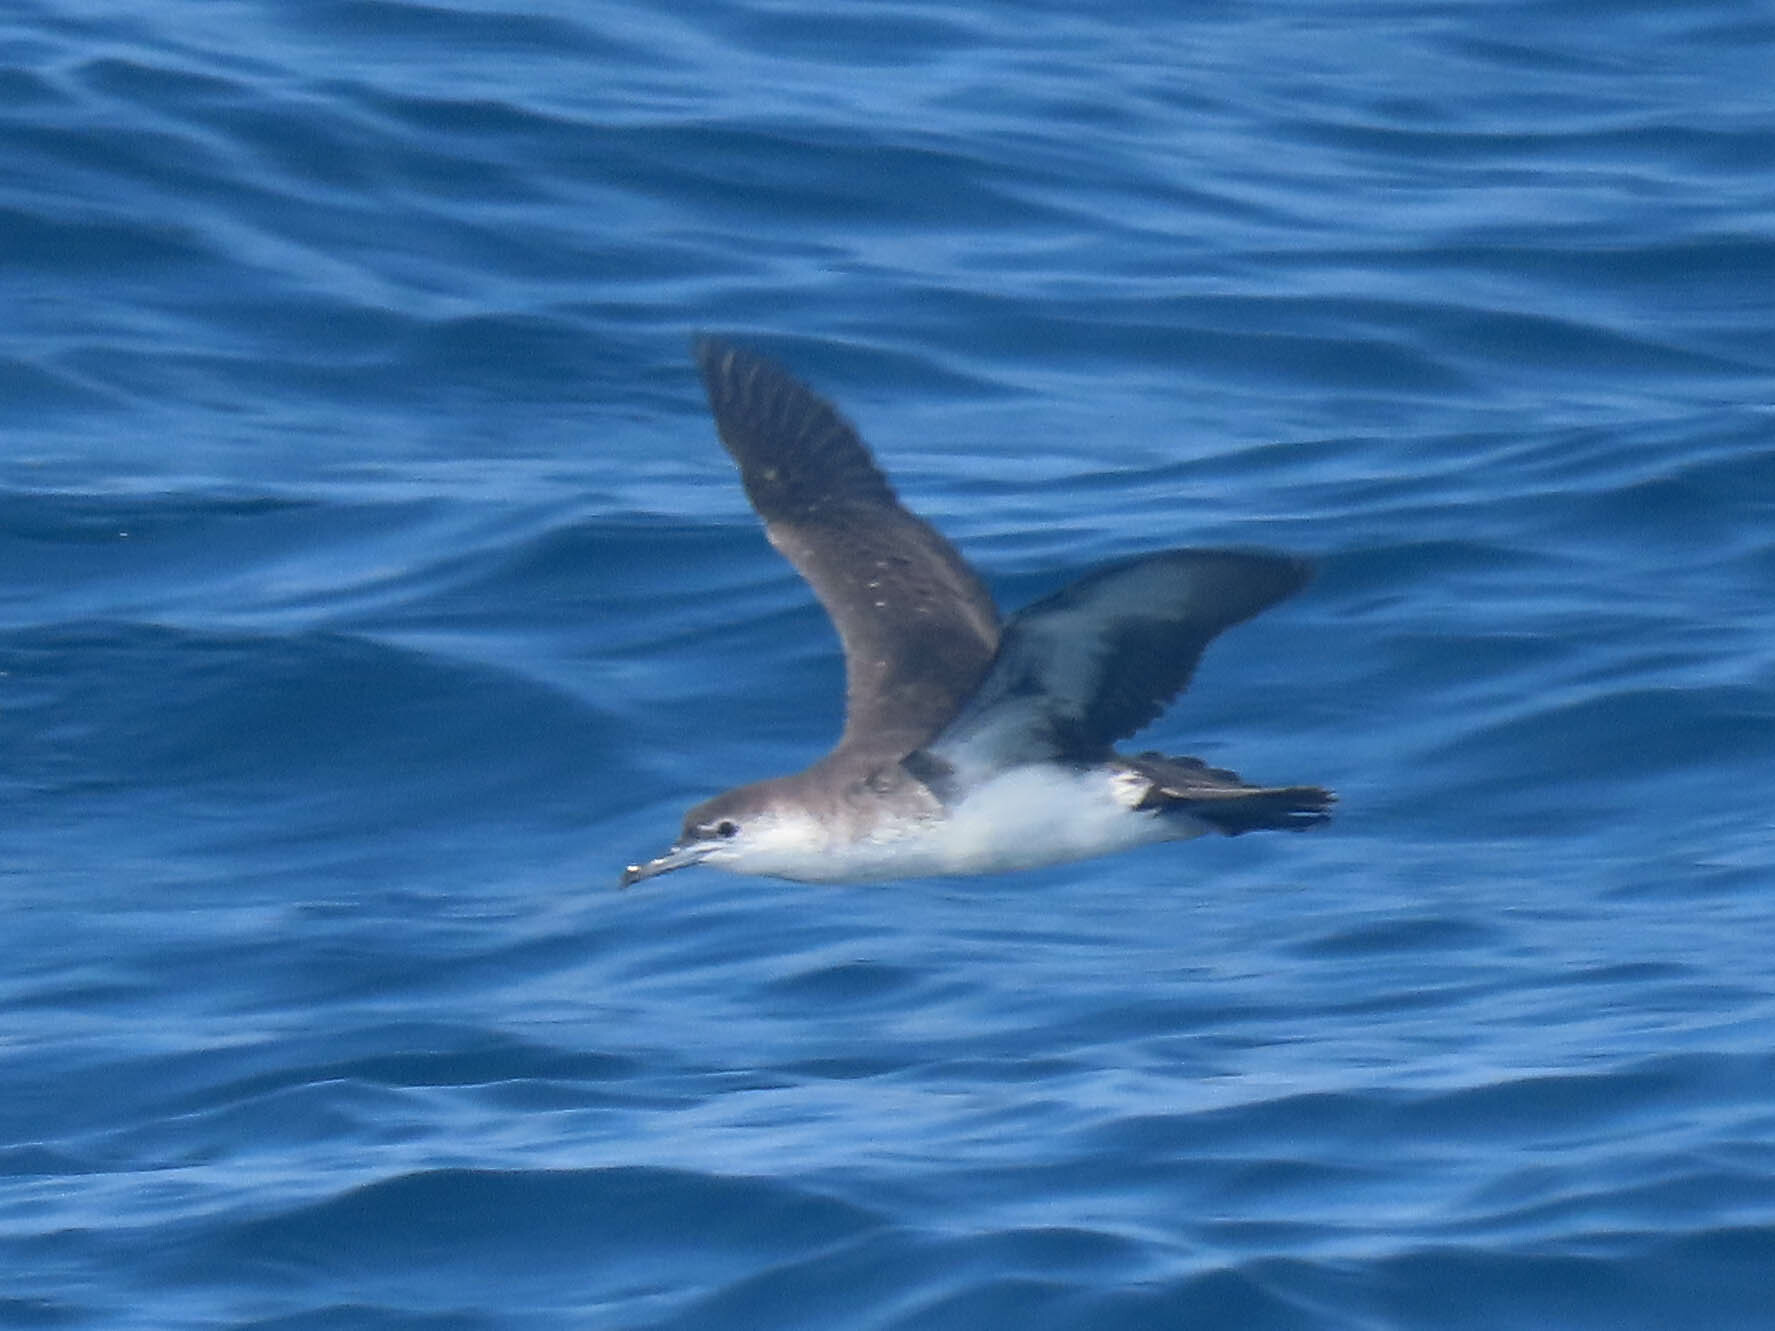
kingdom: Animalia
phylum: Chordata
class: Aves
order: Procellariiformes
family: Procellariidae
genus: Puffinus
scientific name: Puffinus lherminieri
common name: Audubon's shearwater
